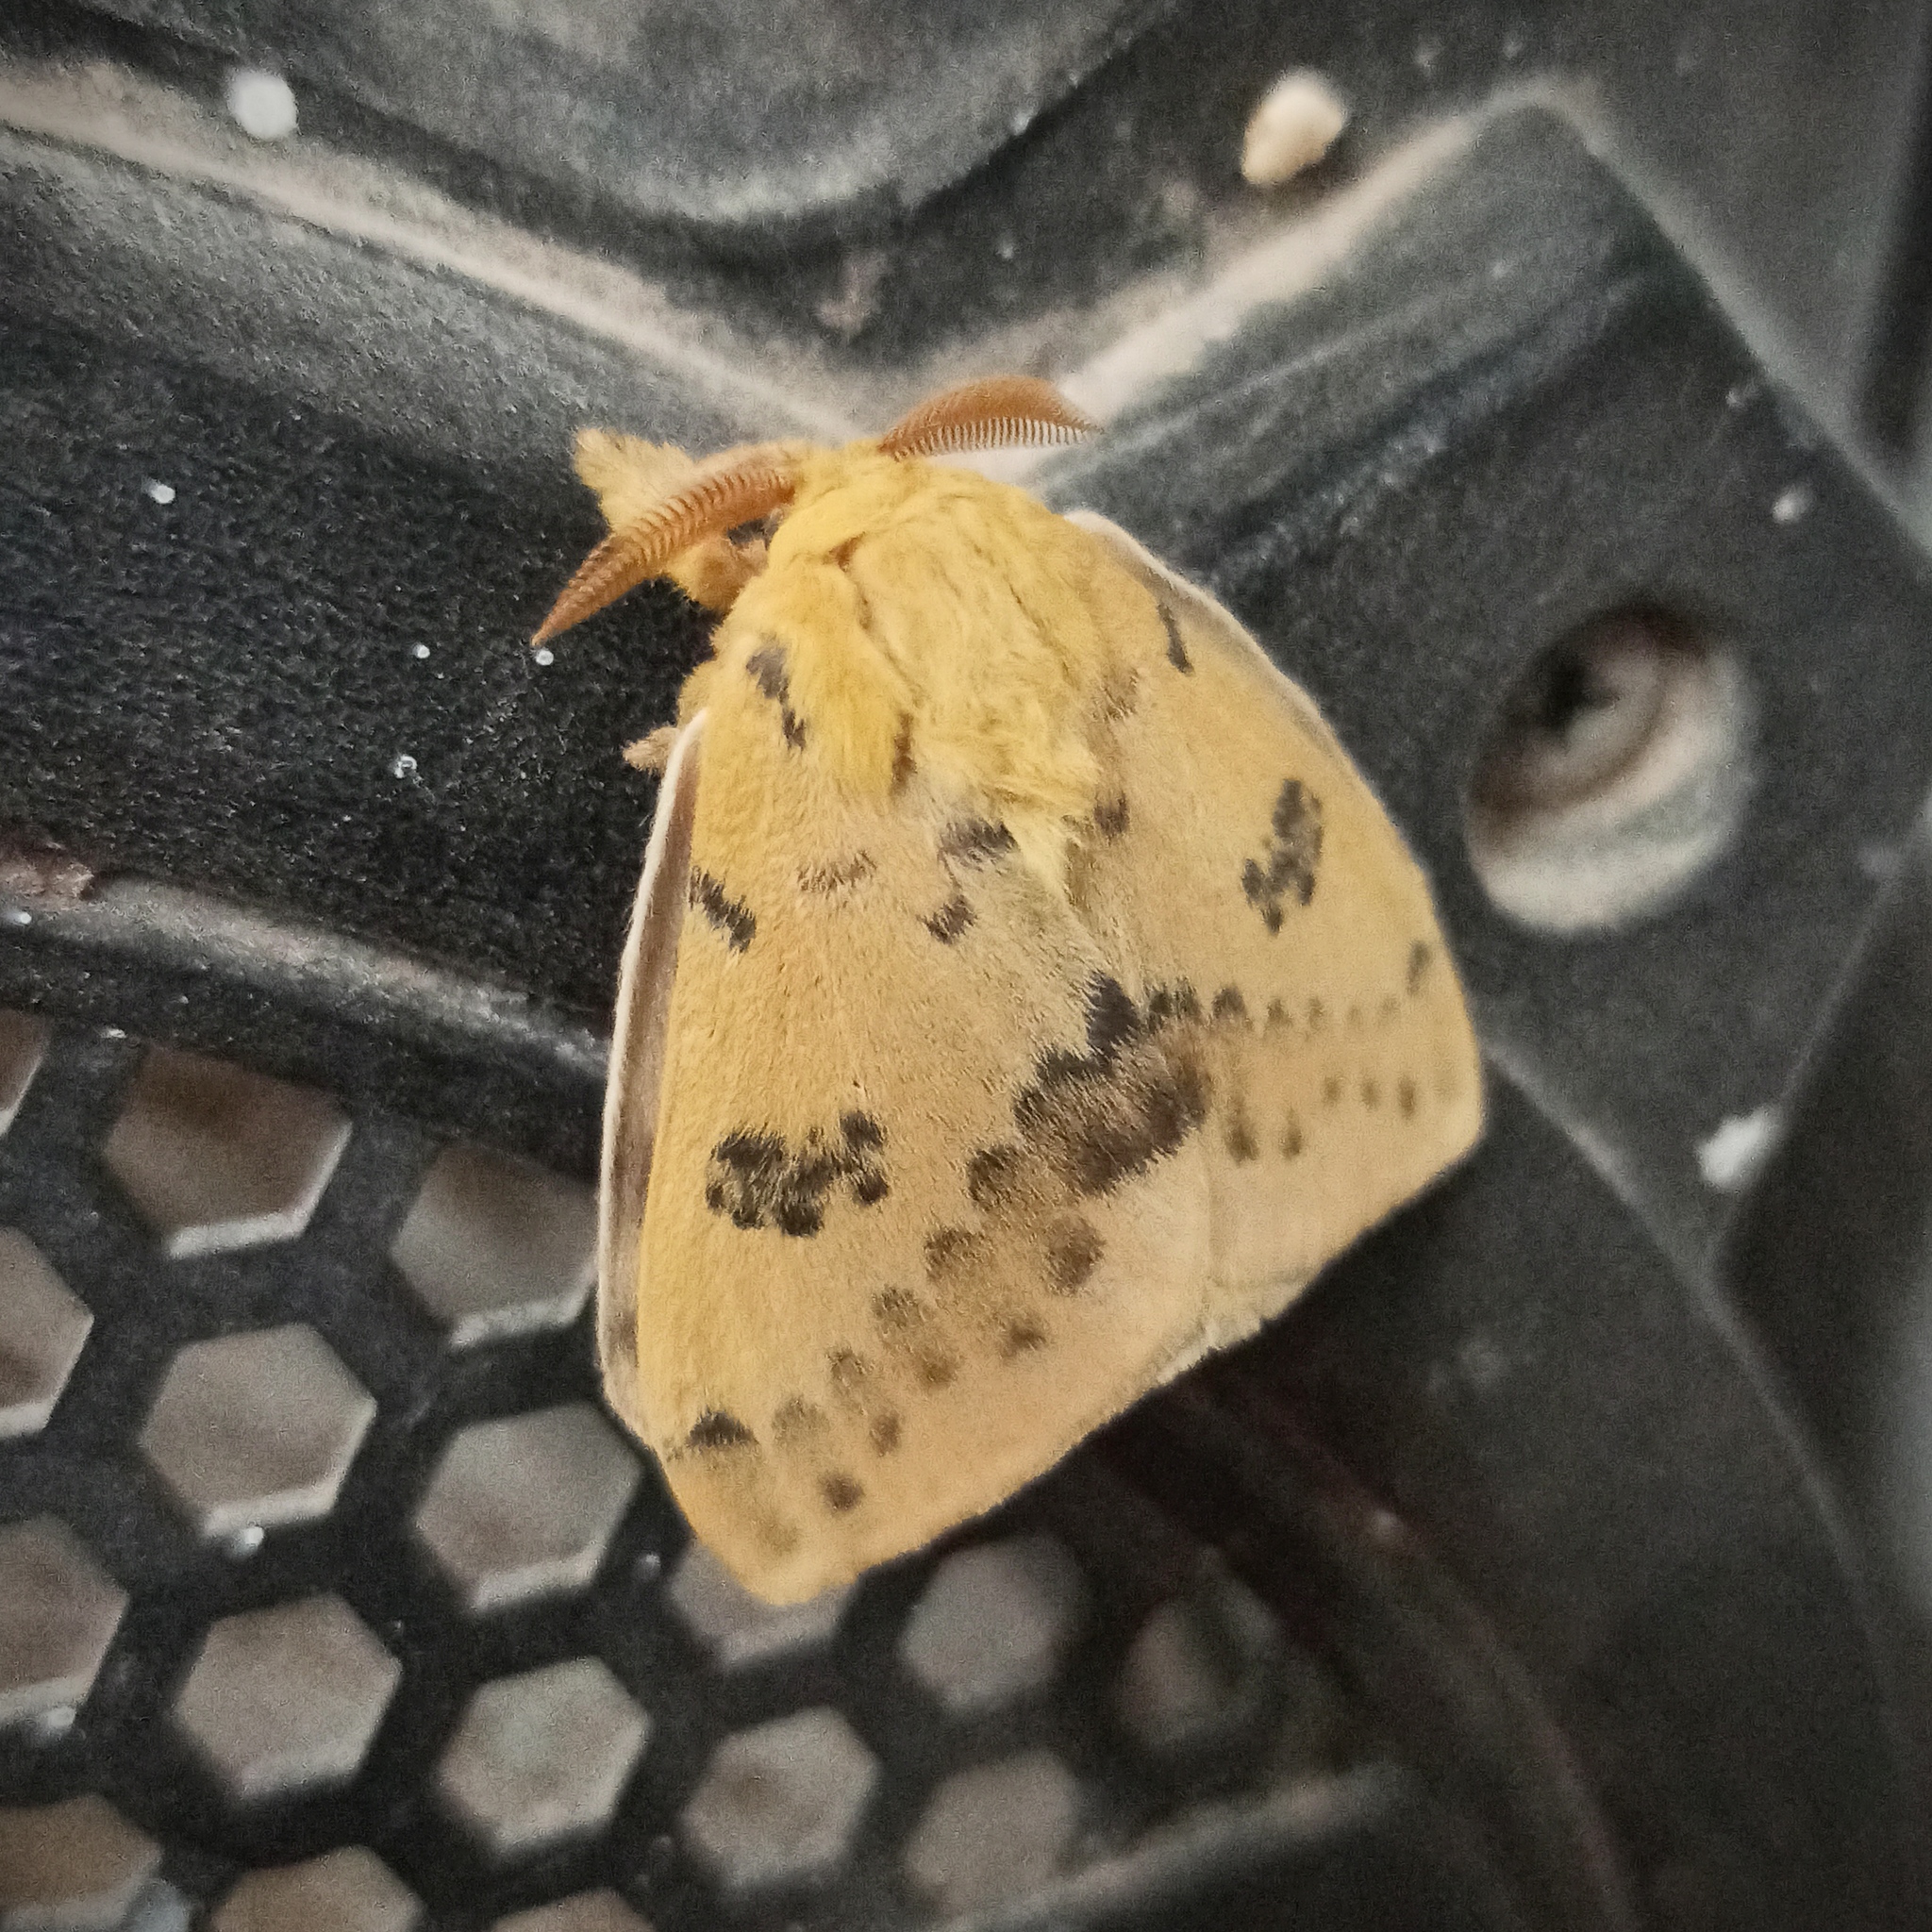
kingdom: Animalia
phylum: Arthropoda
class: Insecta
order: Lepidoptera
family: Saturniidae
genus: Automeris
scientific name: Automeris io
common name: Io moth
